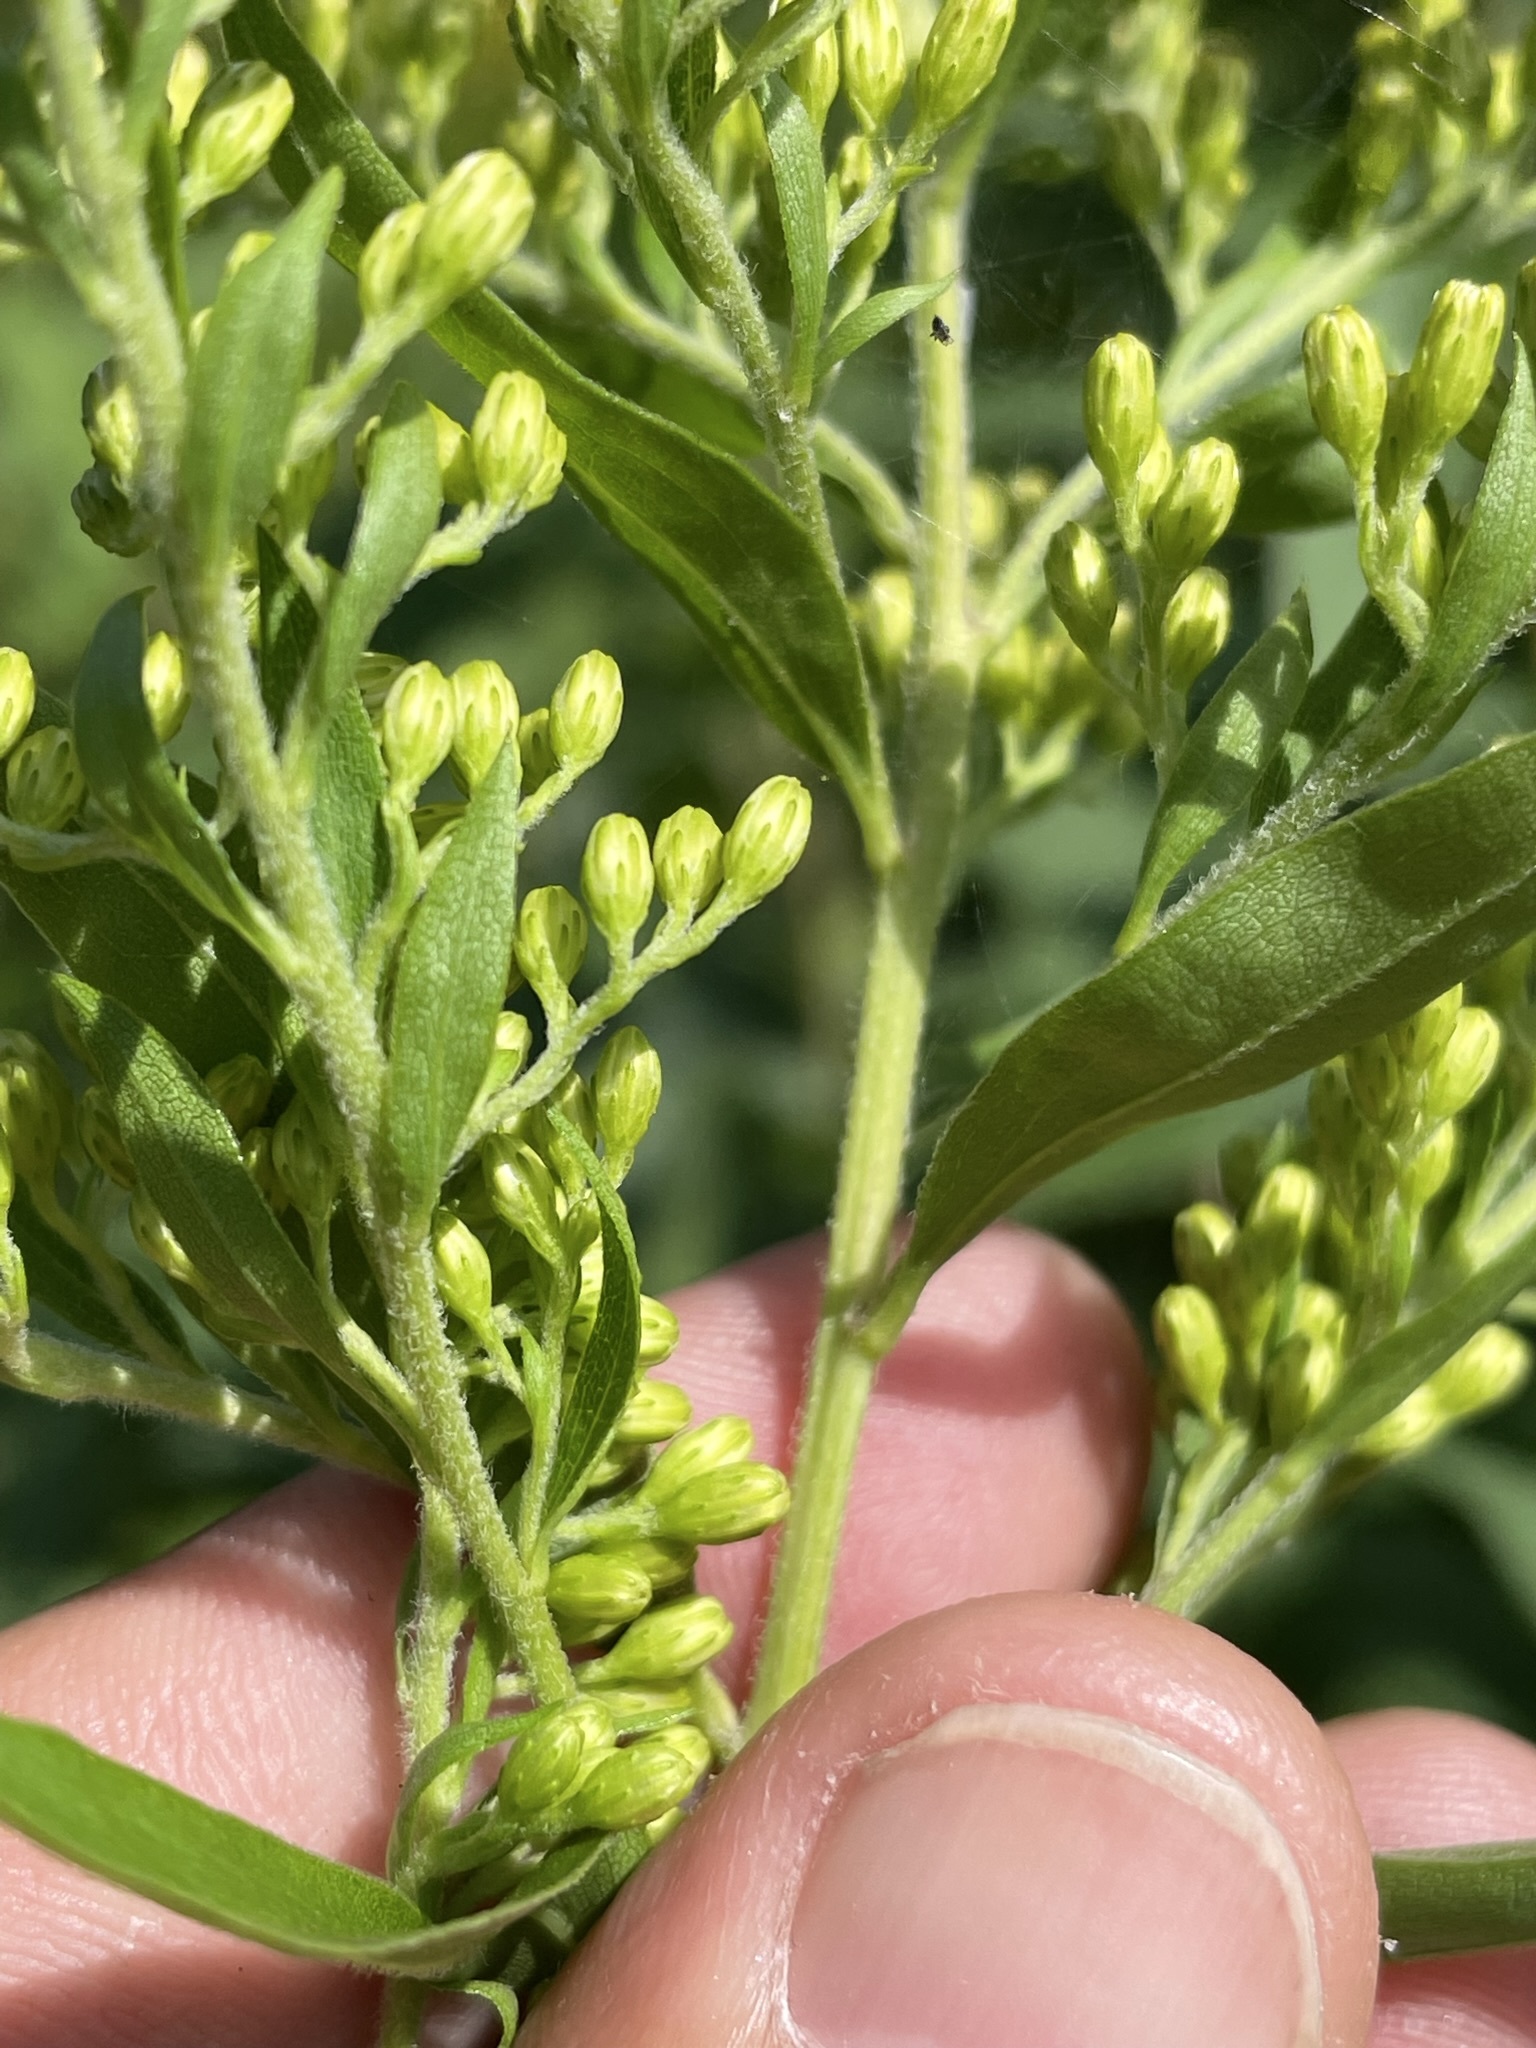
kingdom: Plantae
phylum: Tracheophyta
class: Magnoliopsida
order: Asterales
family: Asteraceae
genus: Solidago
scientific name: Solidago canadensis
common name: Canada goldenrod
